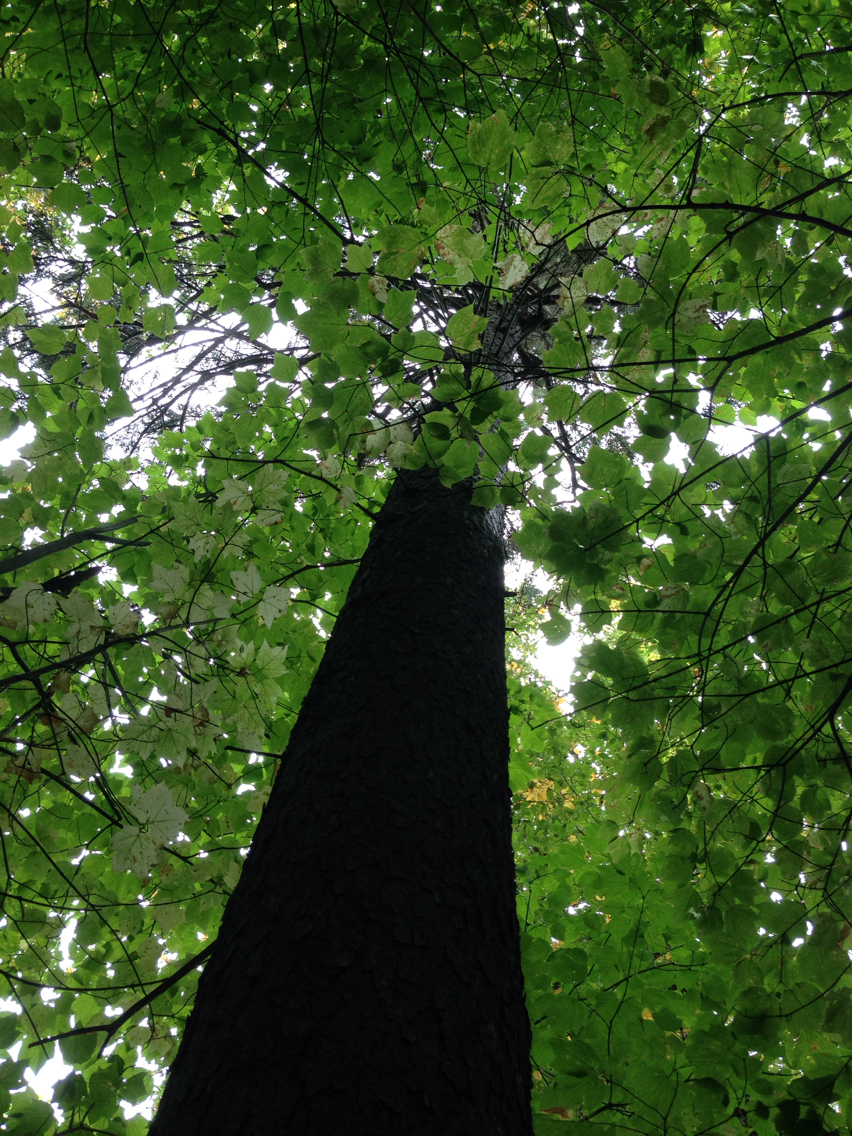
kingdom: Plantae
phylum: Tracheophyta
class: Magnoliopsida
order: Sapindales
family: Sapindaceae
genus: Acer
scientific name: Acer pensylvanicum
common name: Moosewood
